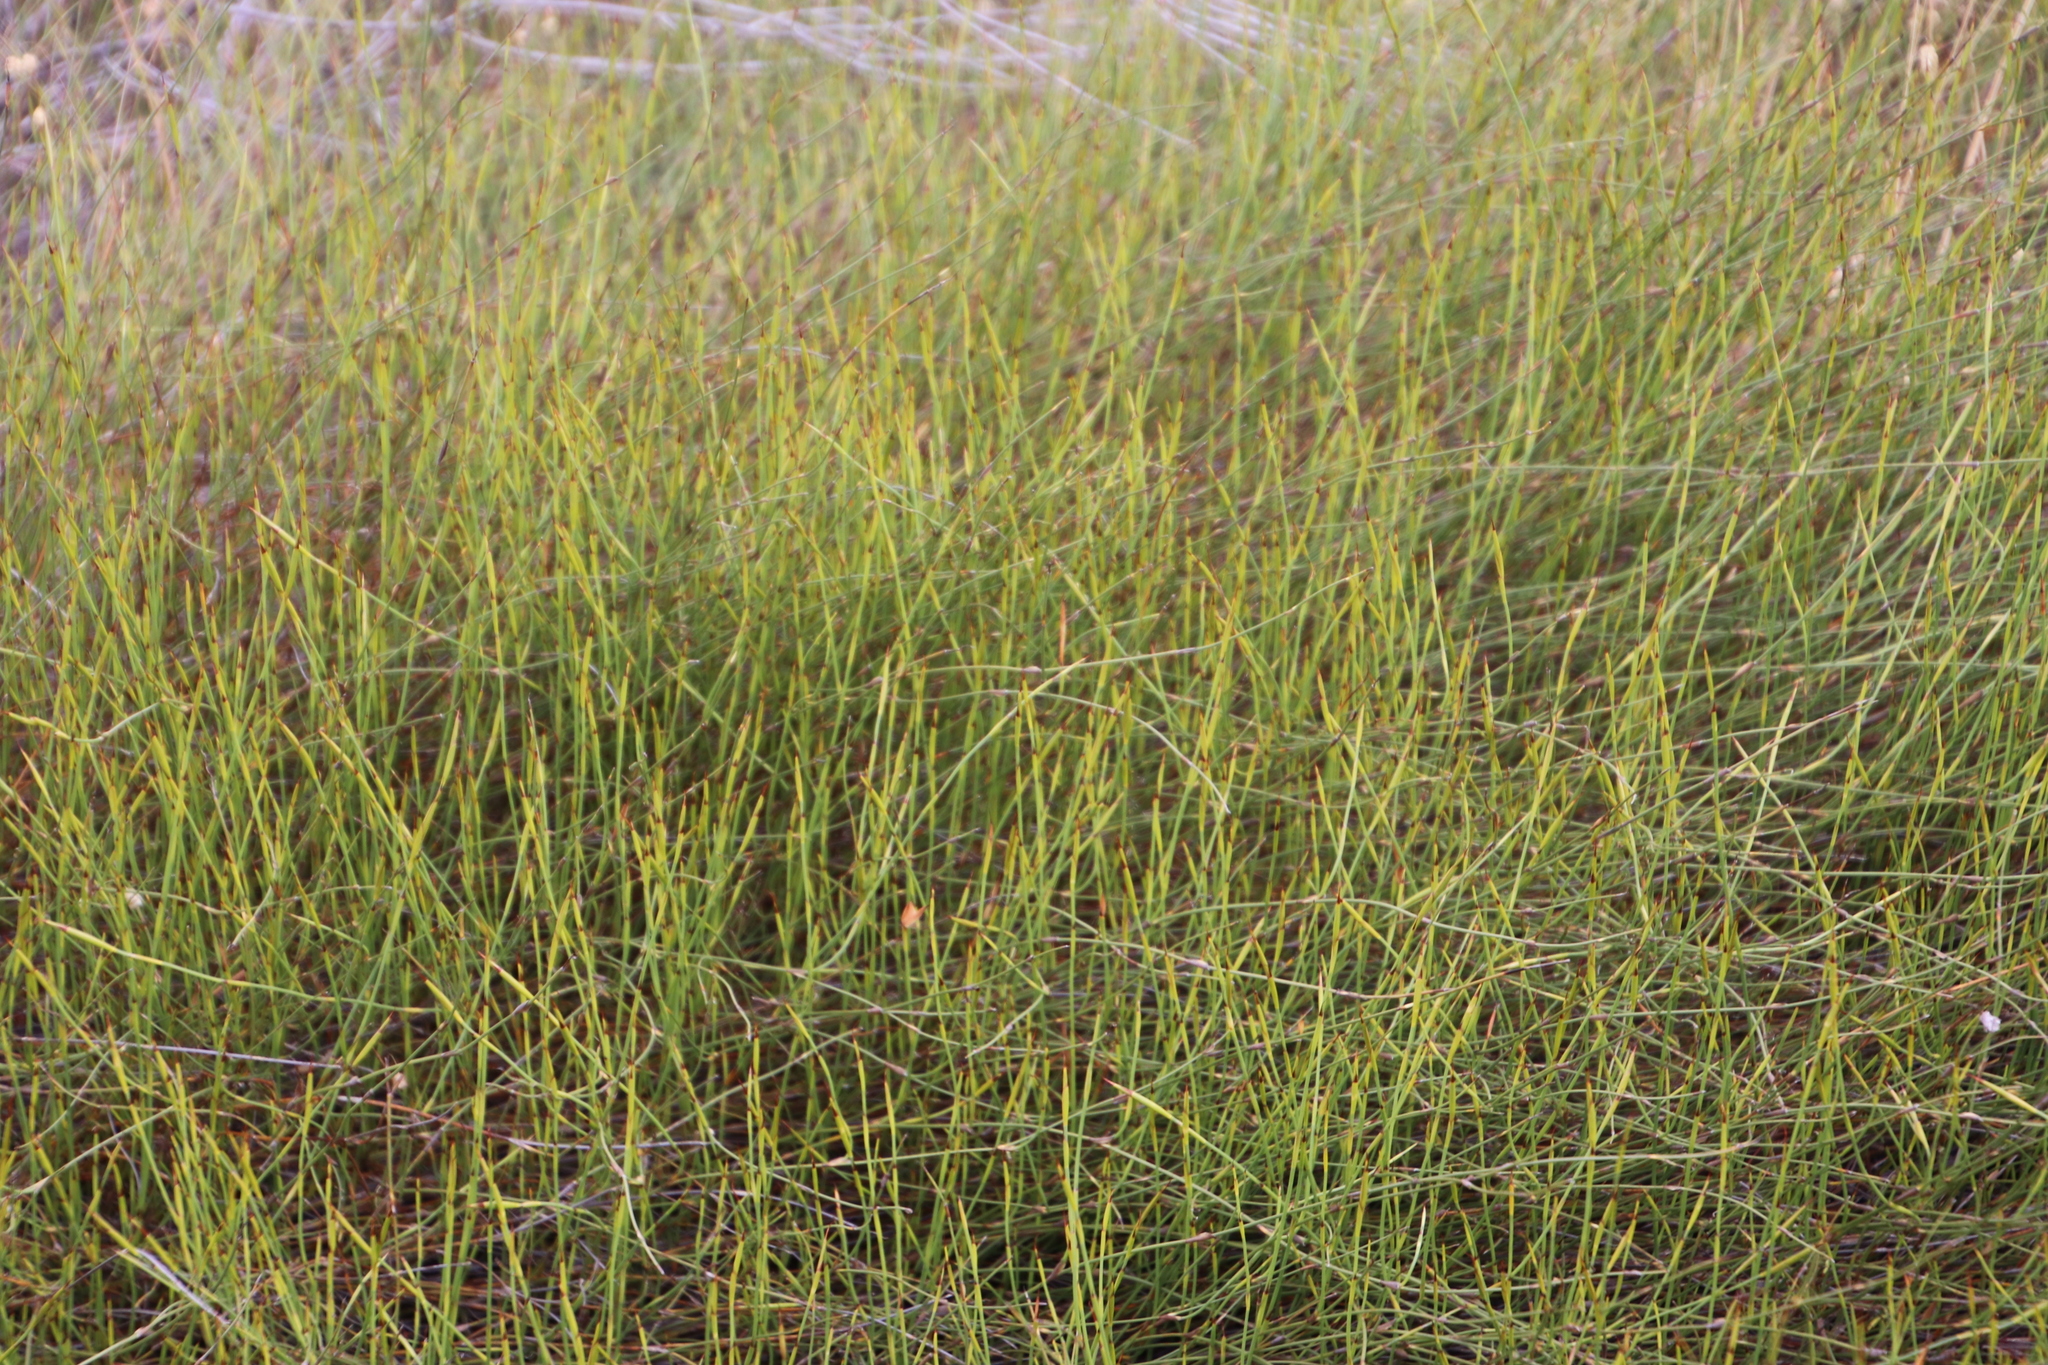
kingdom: Plantae
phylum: Tracheophyta
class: Liliopsida
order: Poales
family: Restionaceae
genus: Willdenowia
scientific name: Willdenowia sulcata
